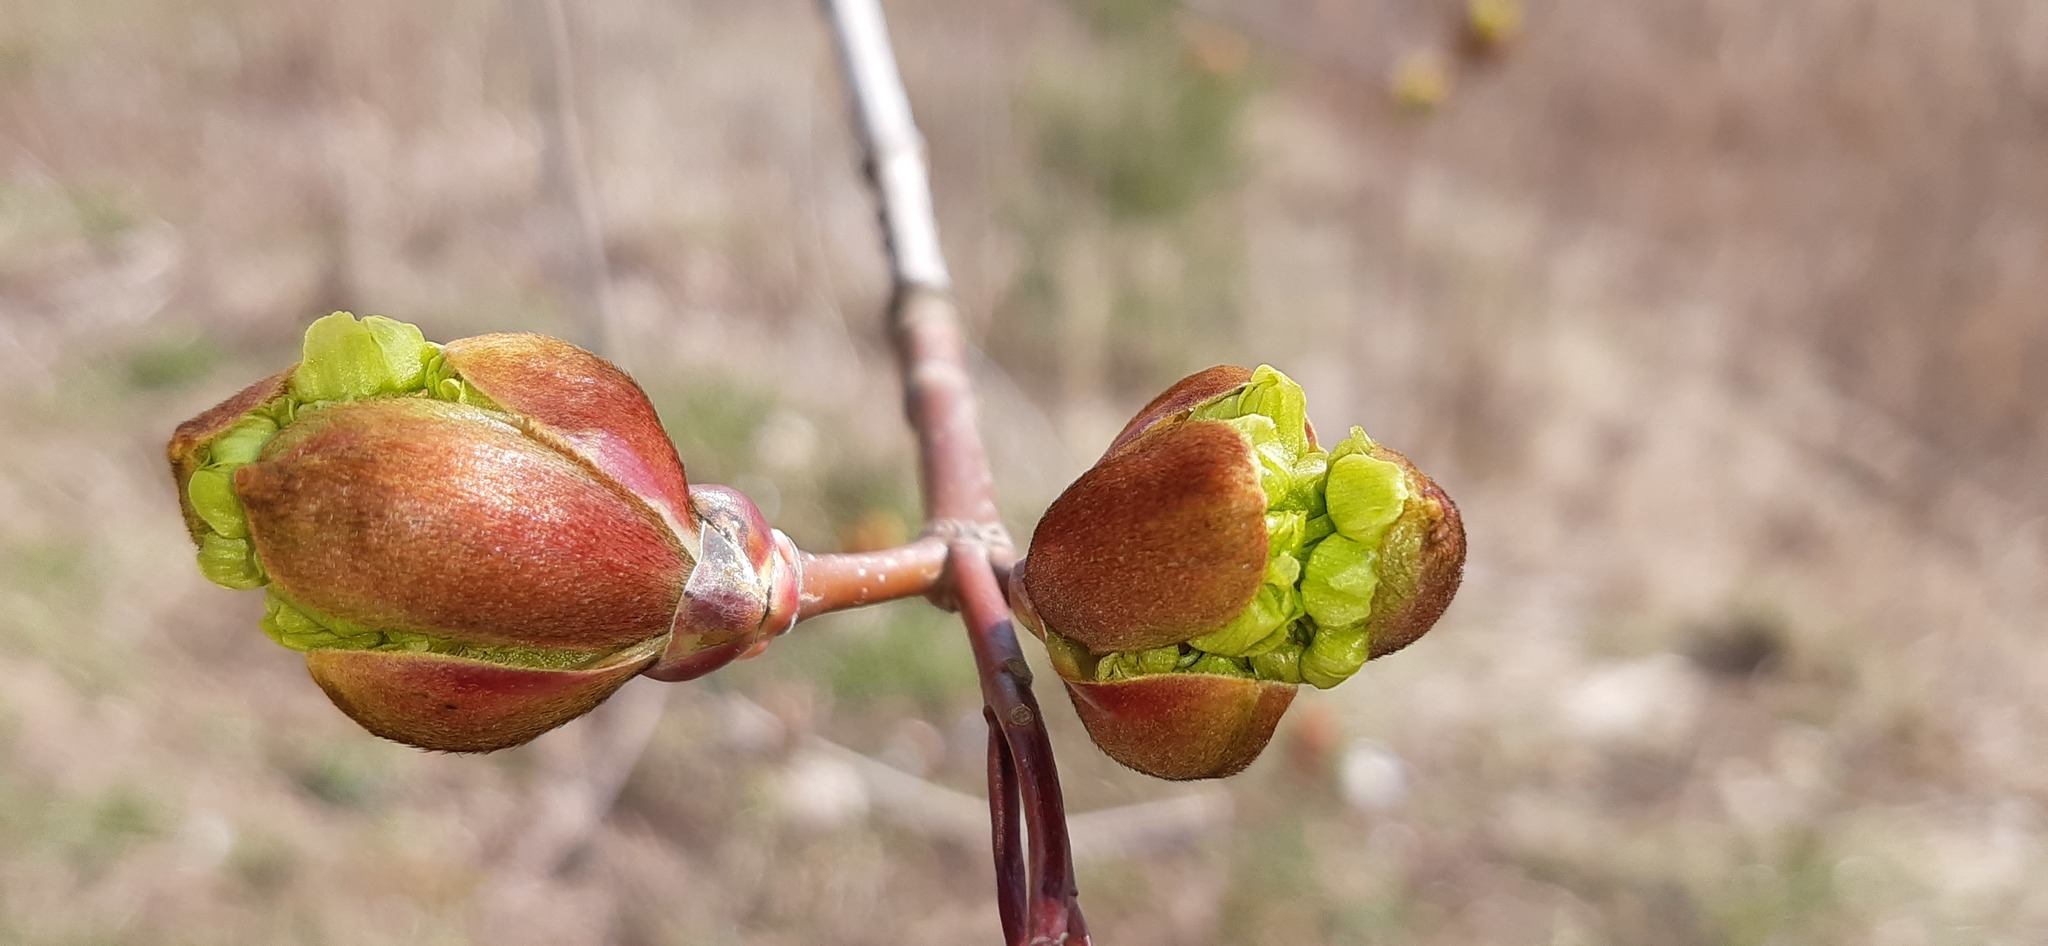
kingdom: Plantae
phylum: Tracheophyta
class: Magnoliopsida
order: Sapindales
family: Sapindaceae
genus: Acer
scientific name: Acer platanoides
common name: Norway maple
